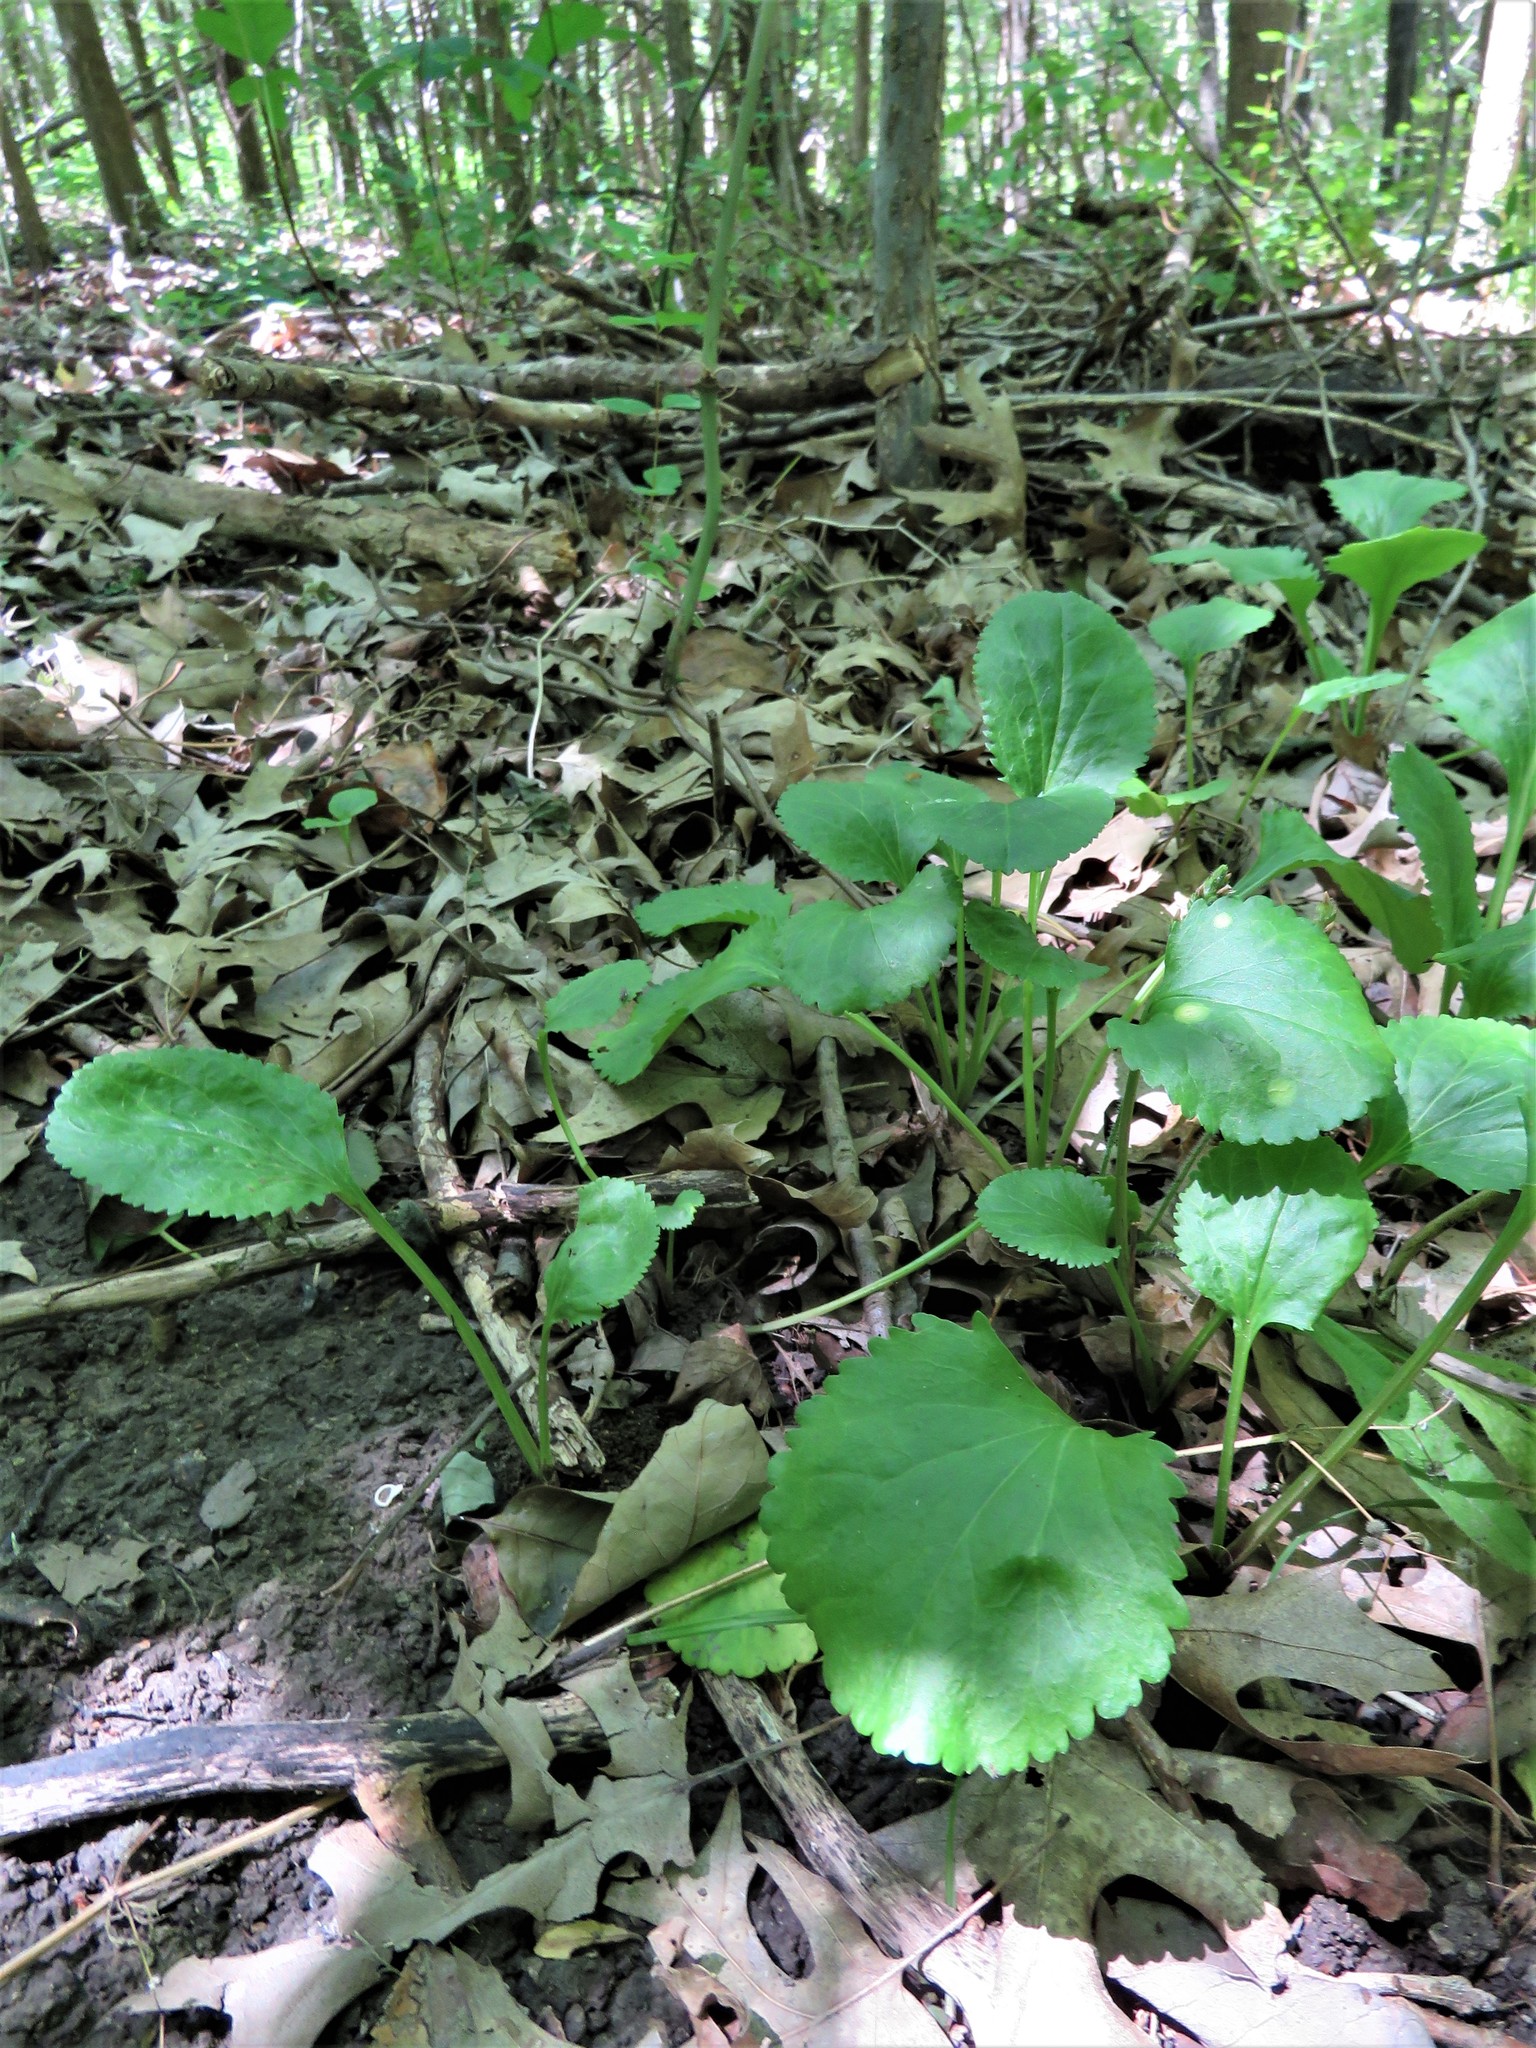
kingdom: Plantae
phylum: Tracheophyta
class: Magnoliopsida
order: Asterales
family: Asteraceae
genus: Packera
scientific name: Packera obovata
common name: Round-leaf ragwort
